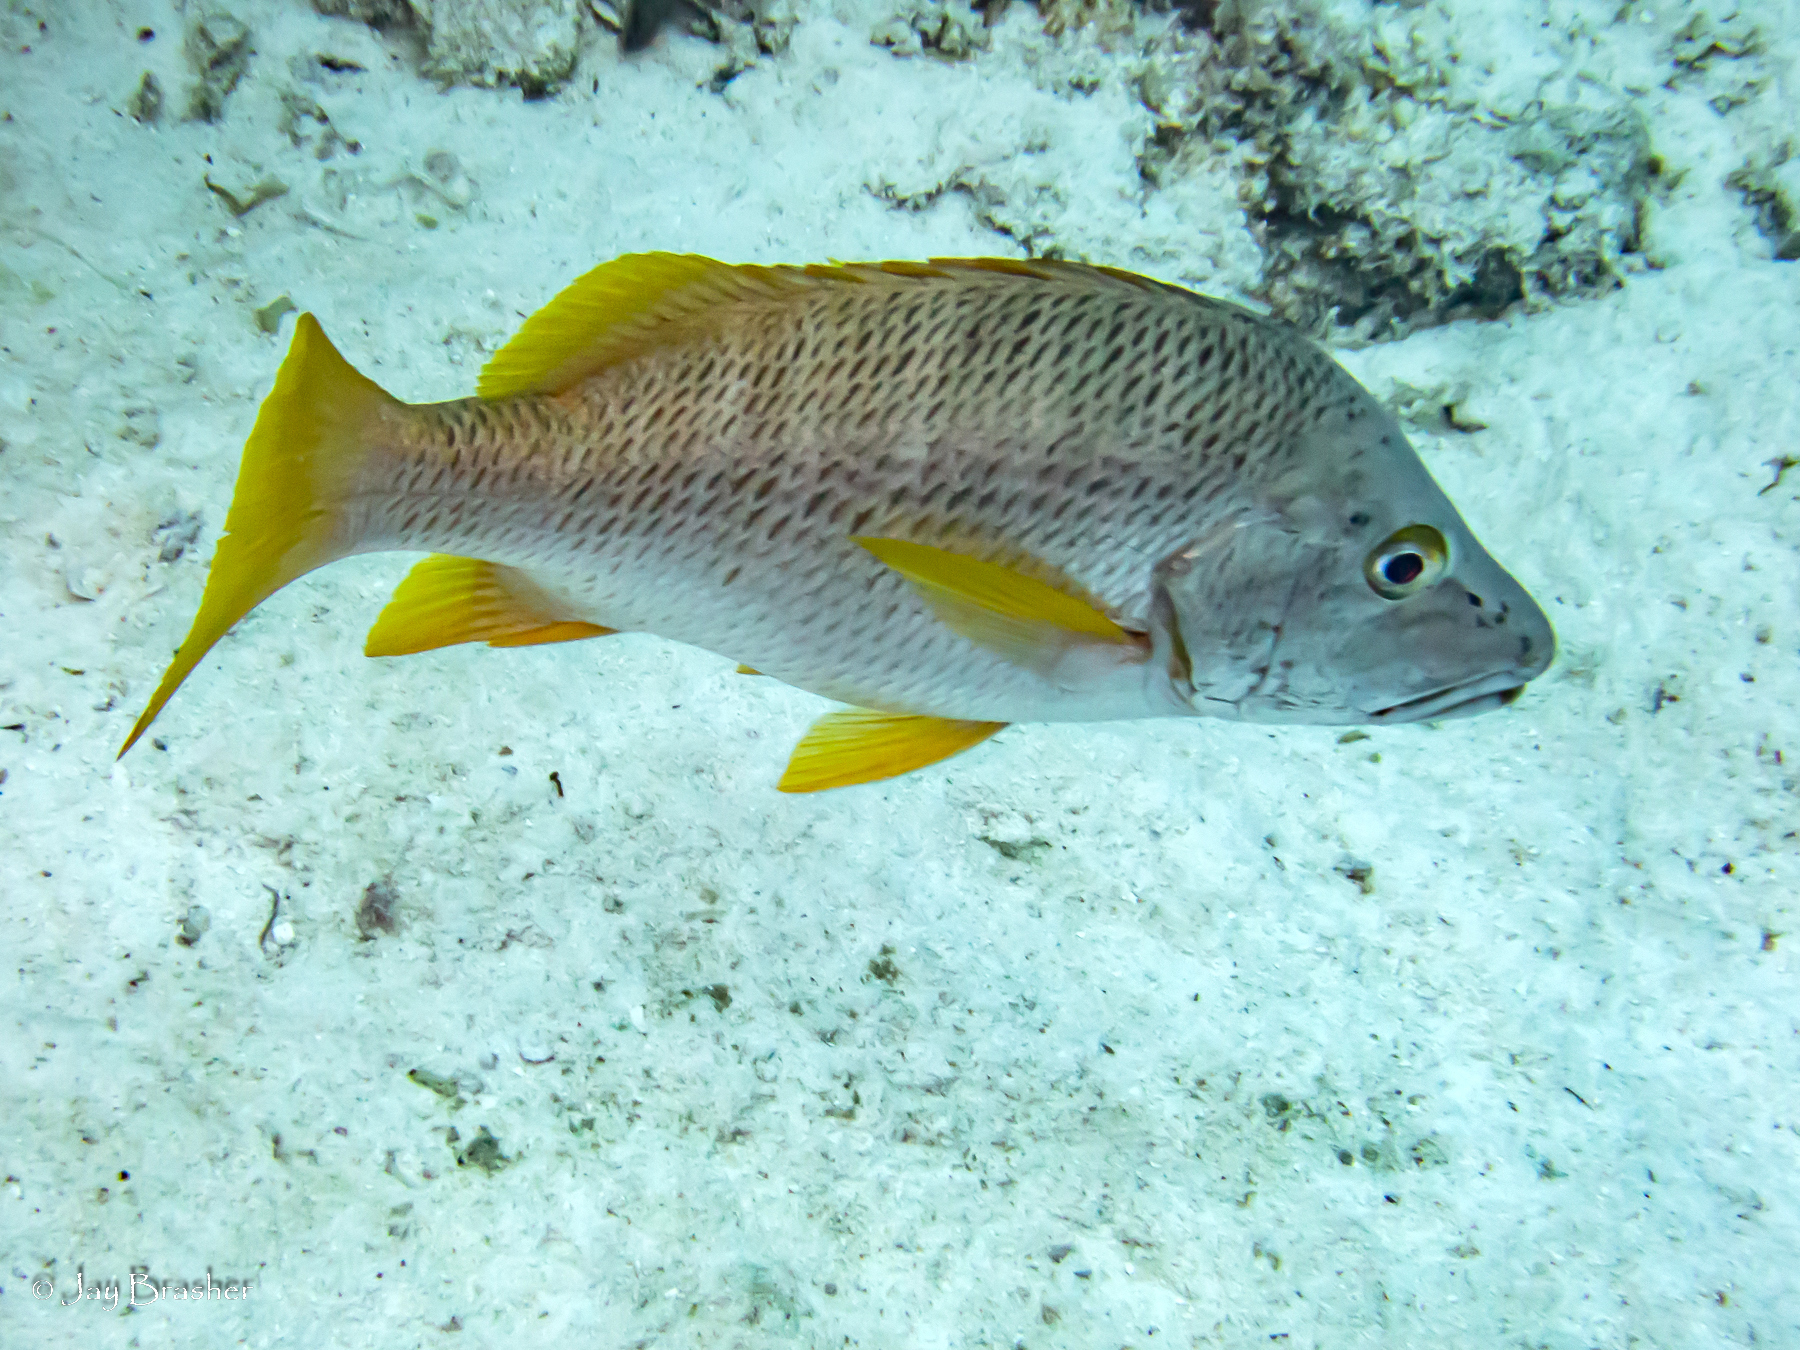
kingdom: Animalia
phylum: Chordata
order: Perciformes
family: Lutjanidae
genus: Lutjanus
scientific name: Lutjanus apodus
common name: Schoolmaster
